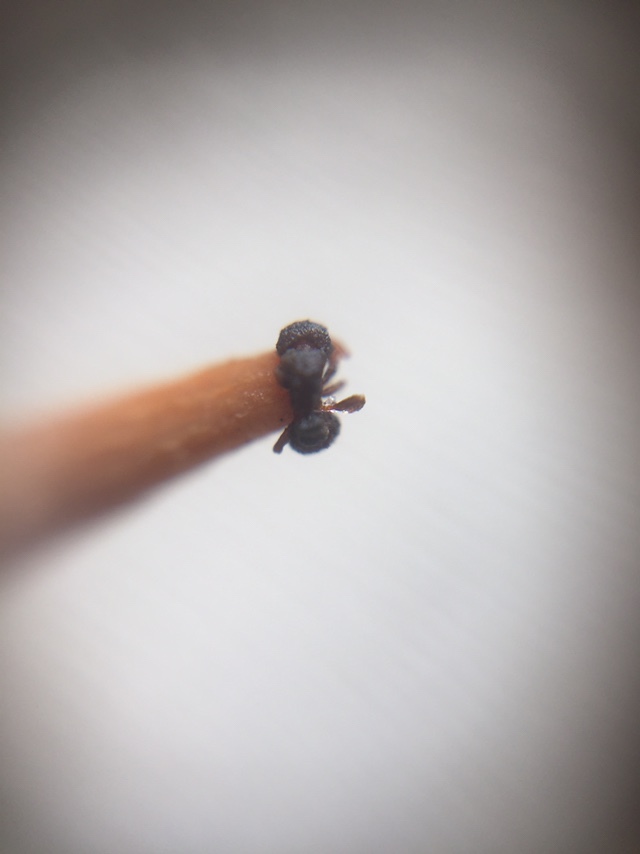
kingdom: Animalia
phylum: Arthropoda
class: Insecta
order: Hymenoptera
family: Formicidae
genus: Tetramorium
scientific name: Tetramorium walshi
